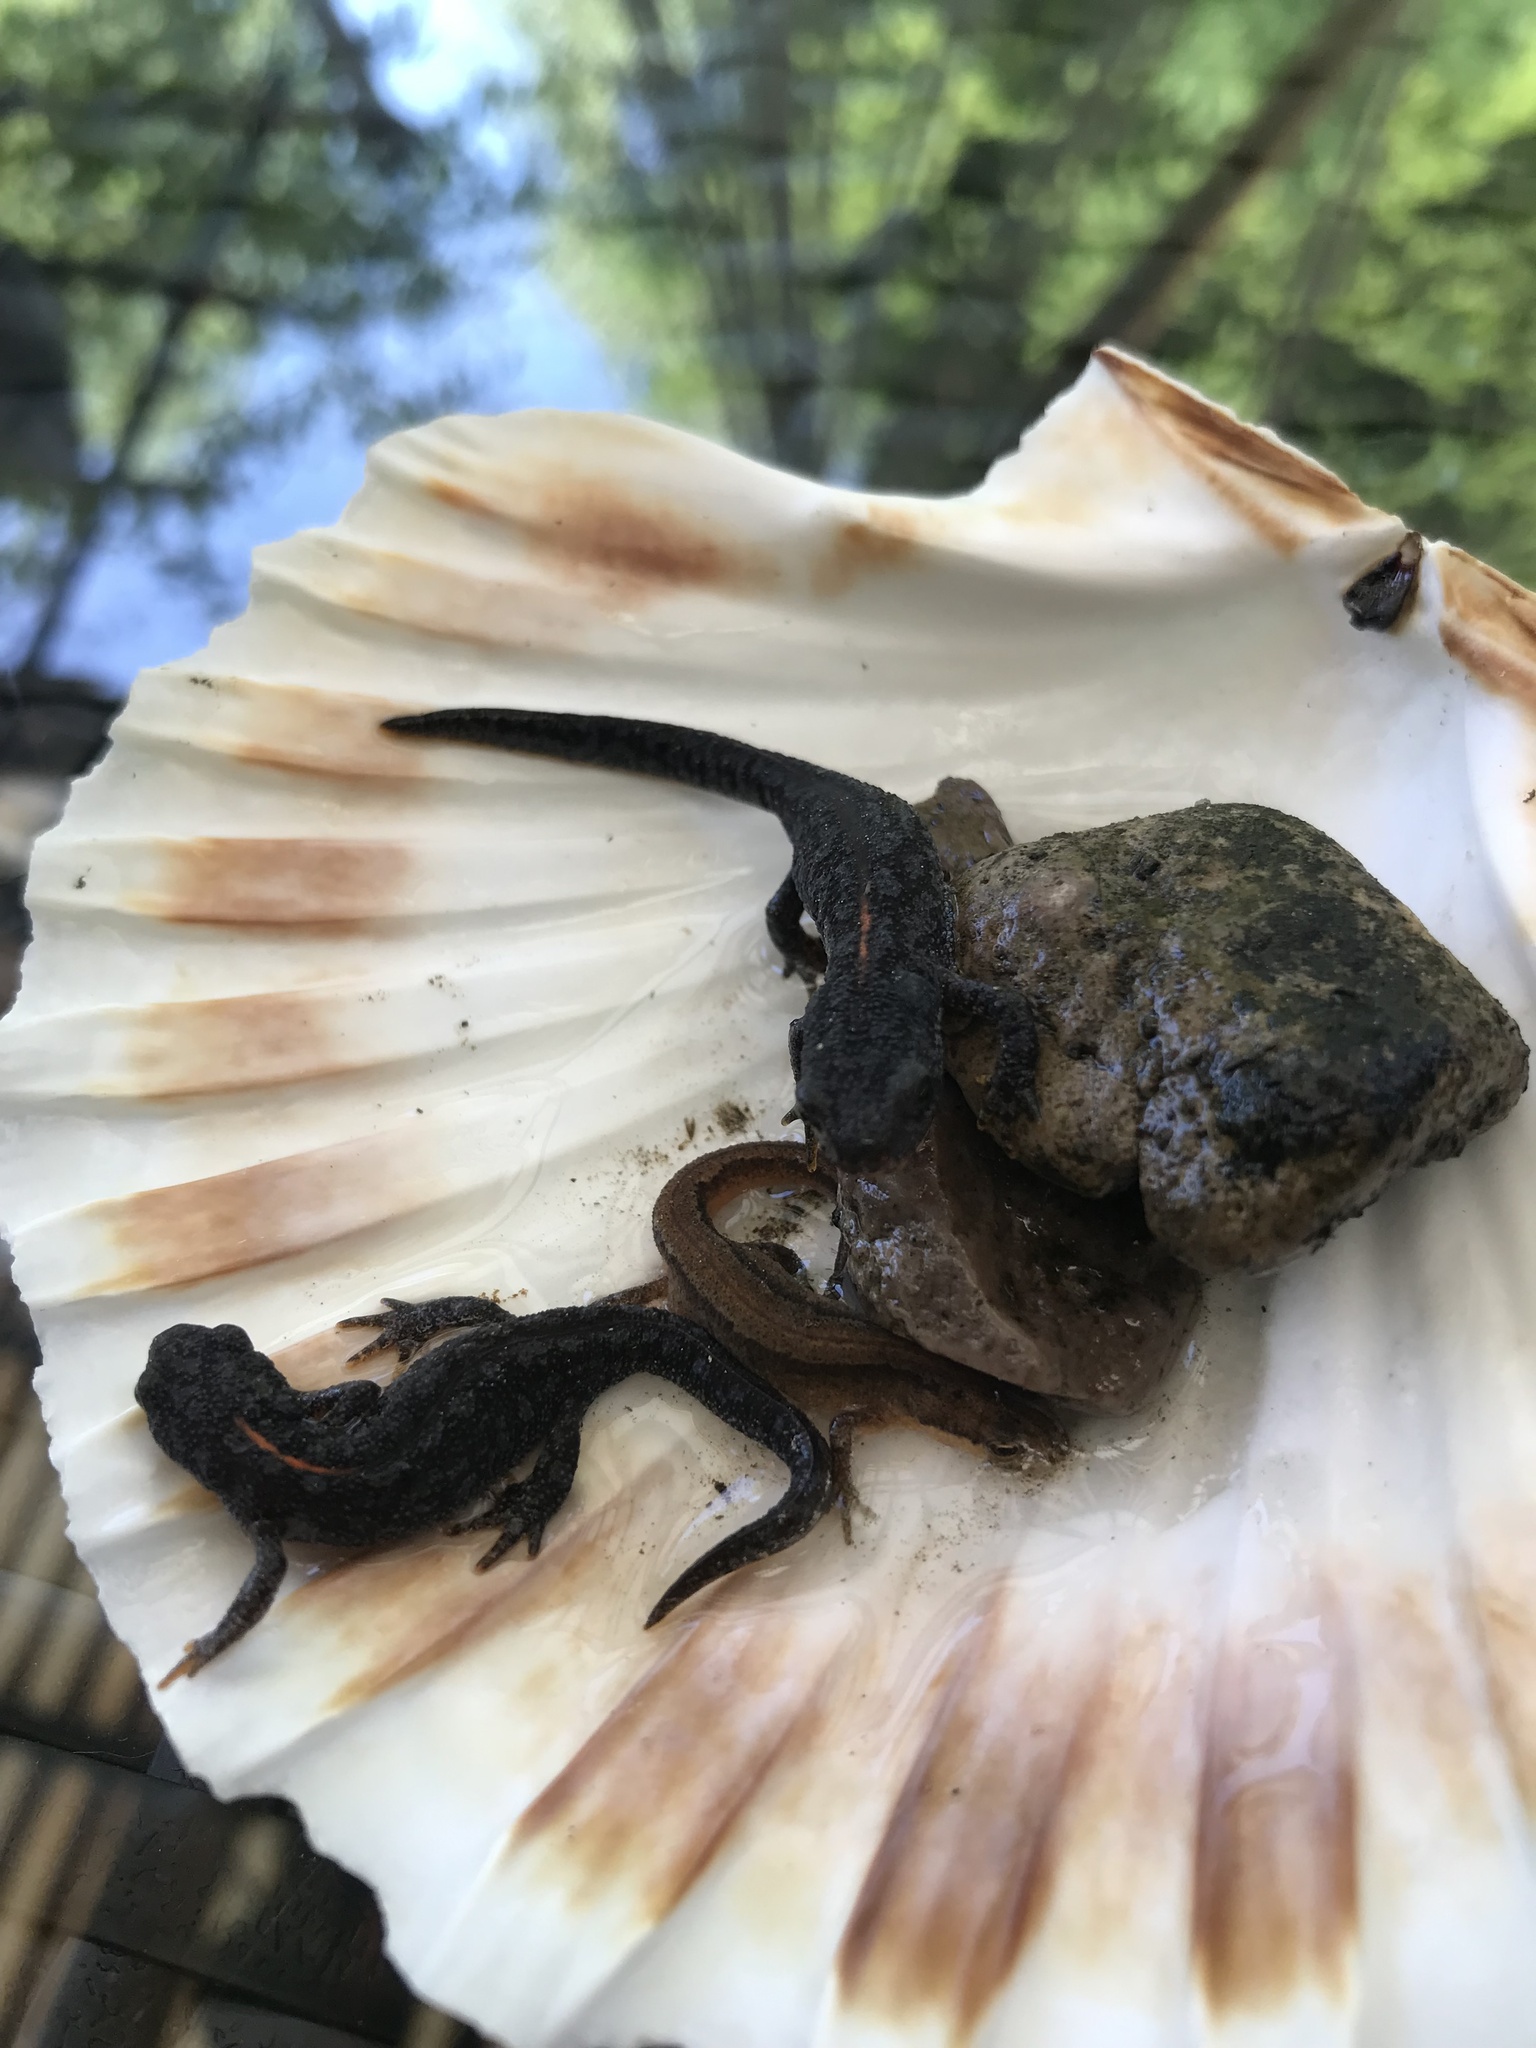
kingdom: Animalia
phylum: Chordata
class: Amphibia
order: Caudata
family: Salamandridae
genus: Ichthyosaura
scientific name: Ichthyosaura alpestris
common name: Alpine newt
